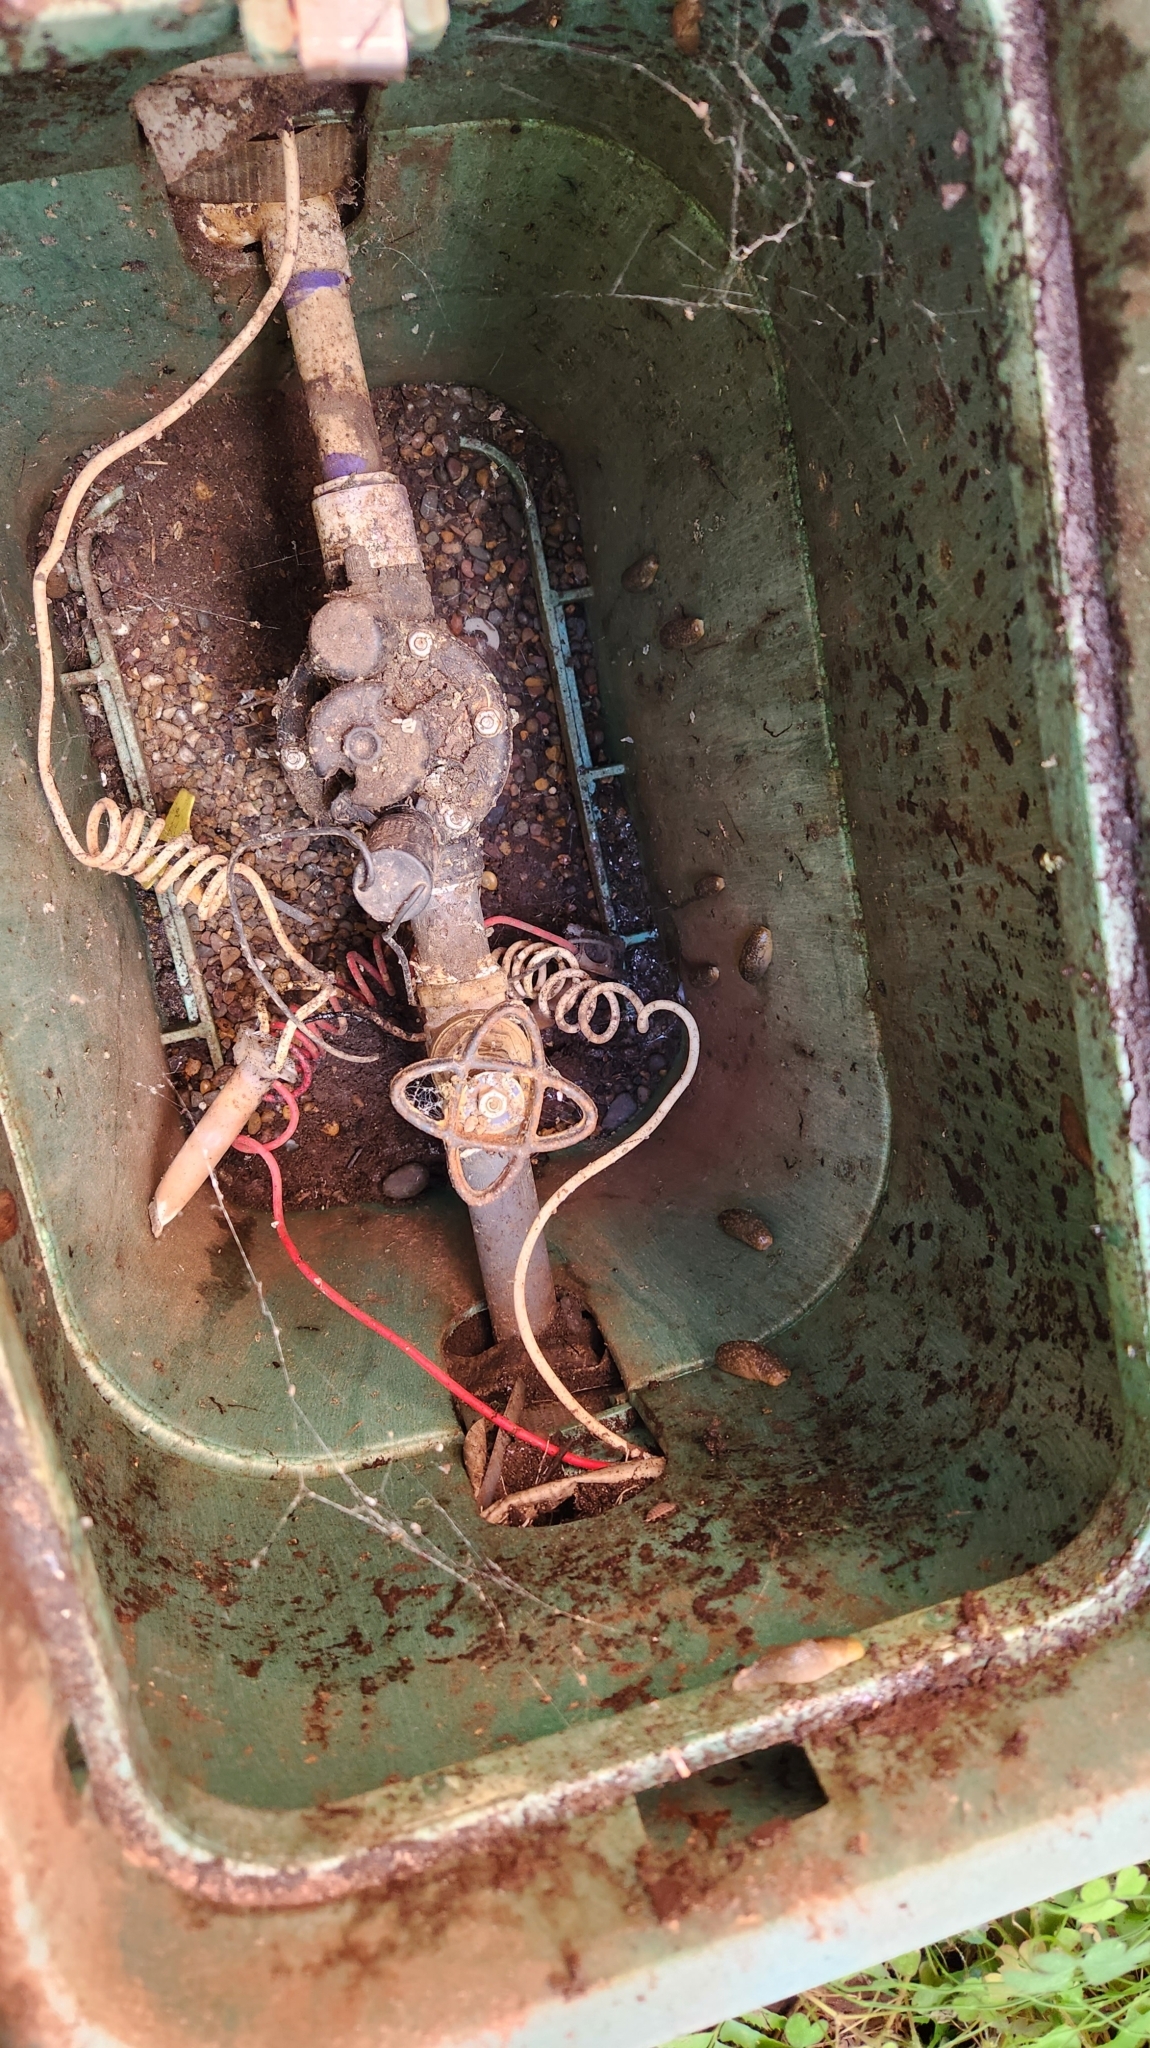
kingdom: Animalia
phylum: Mollusca
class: Gastropoda
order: Stylommatophora
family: Limacidae
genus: Limacus
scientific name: Limacus flavus
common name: Yellow gardenslug
